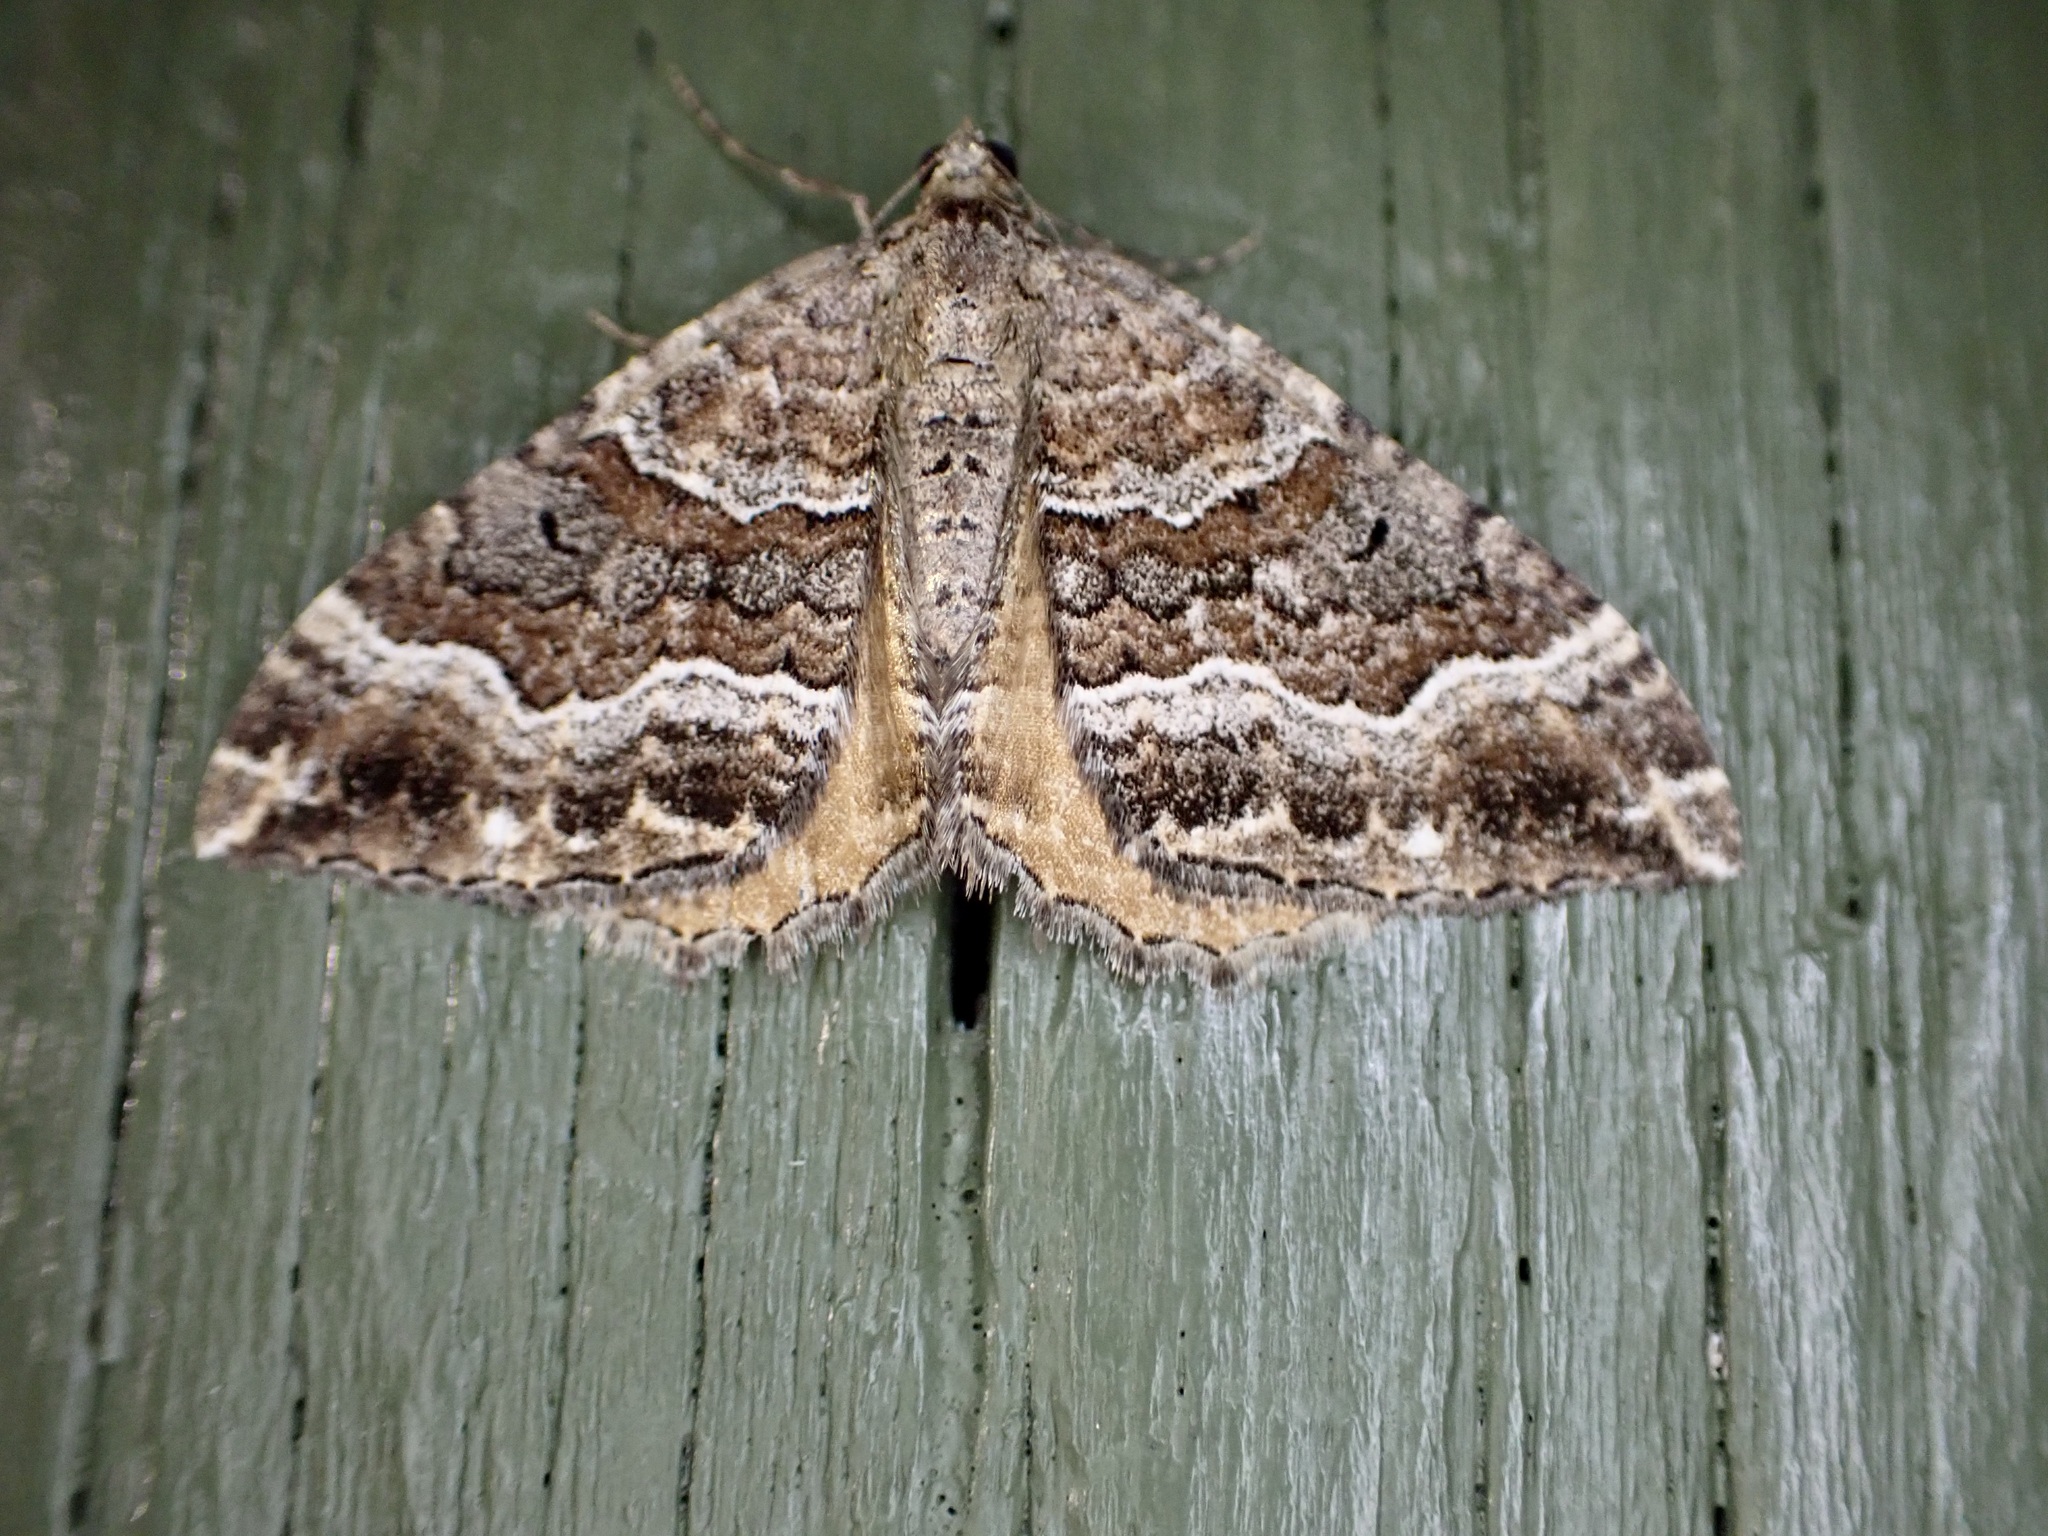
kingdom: Animalia
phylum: Arthropoda
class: Insecta
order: Lepidoptera
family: Geometridae
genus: Hydriomena
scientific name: Hydriomena deltoidata
